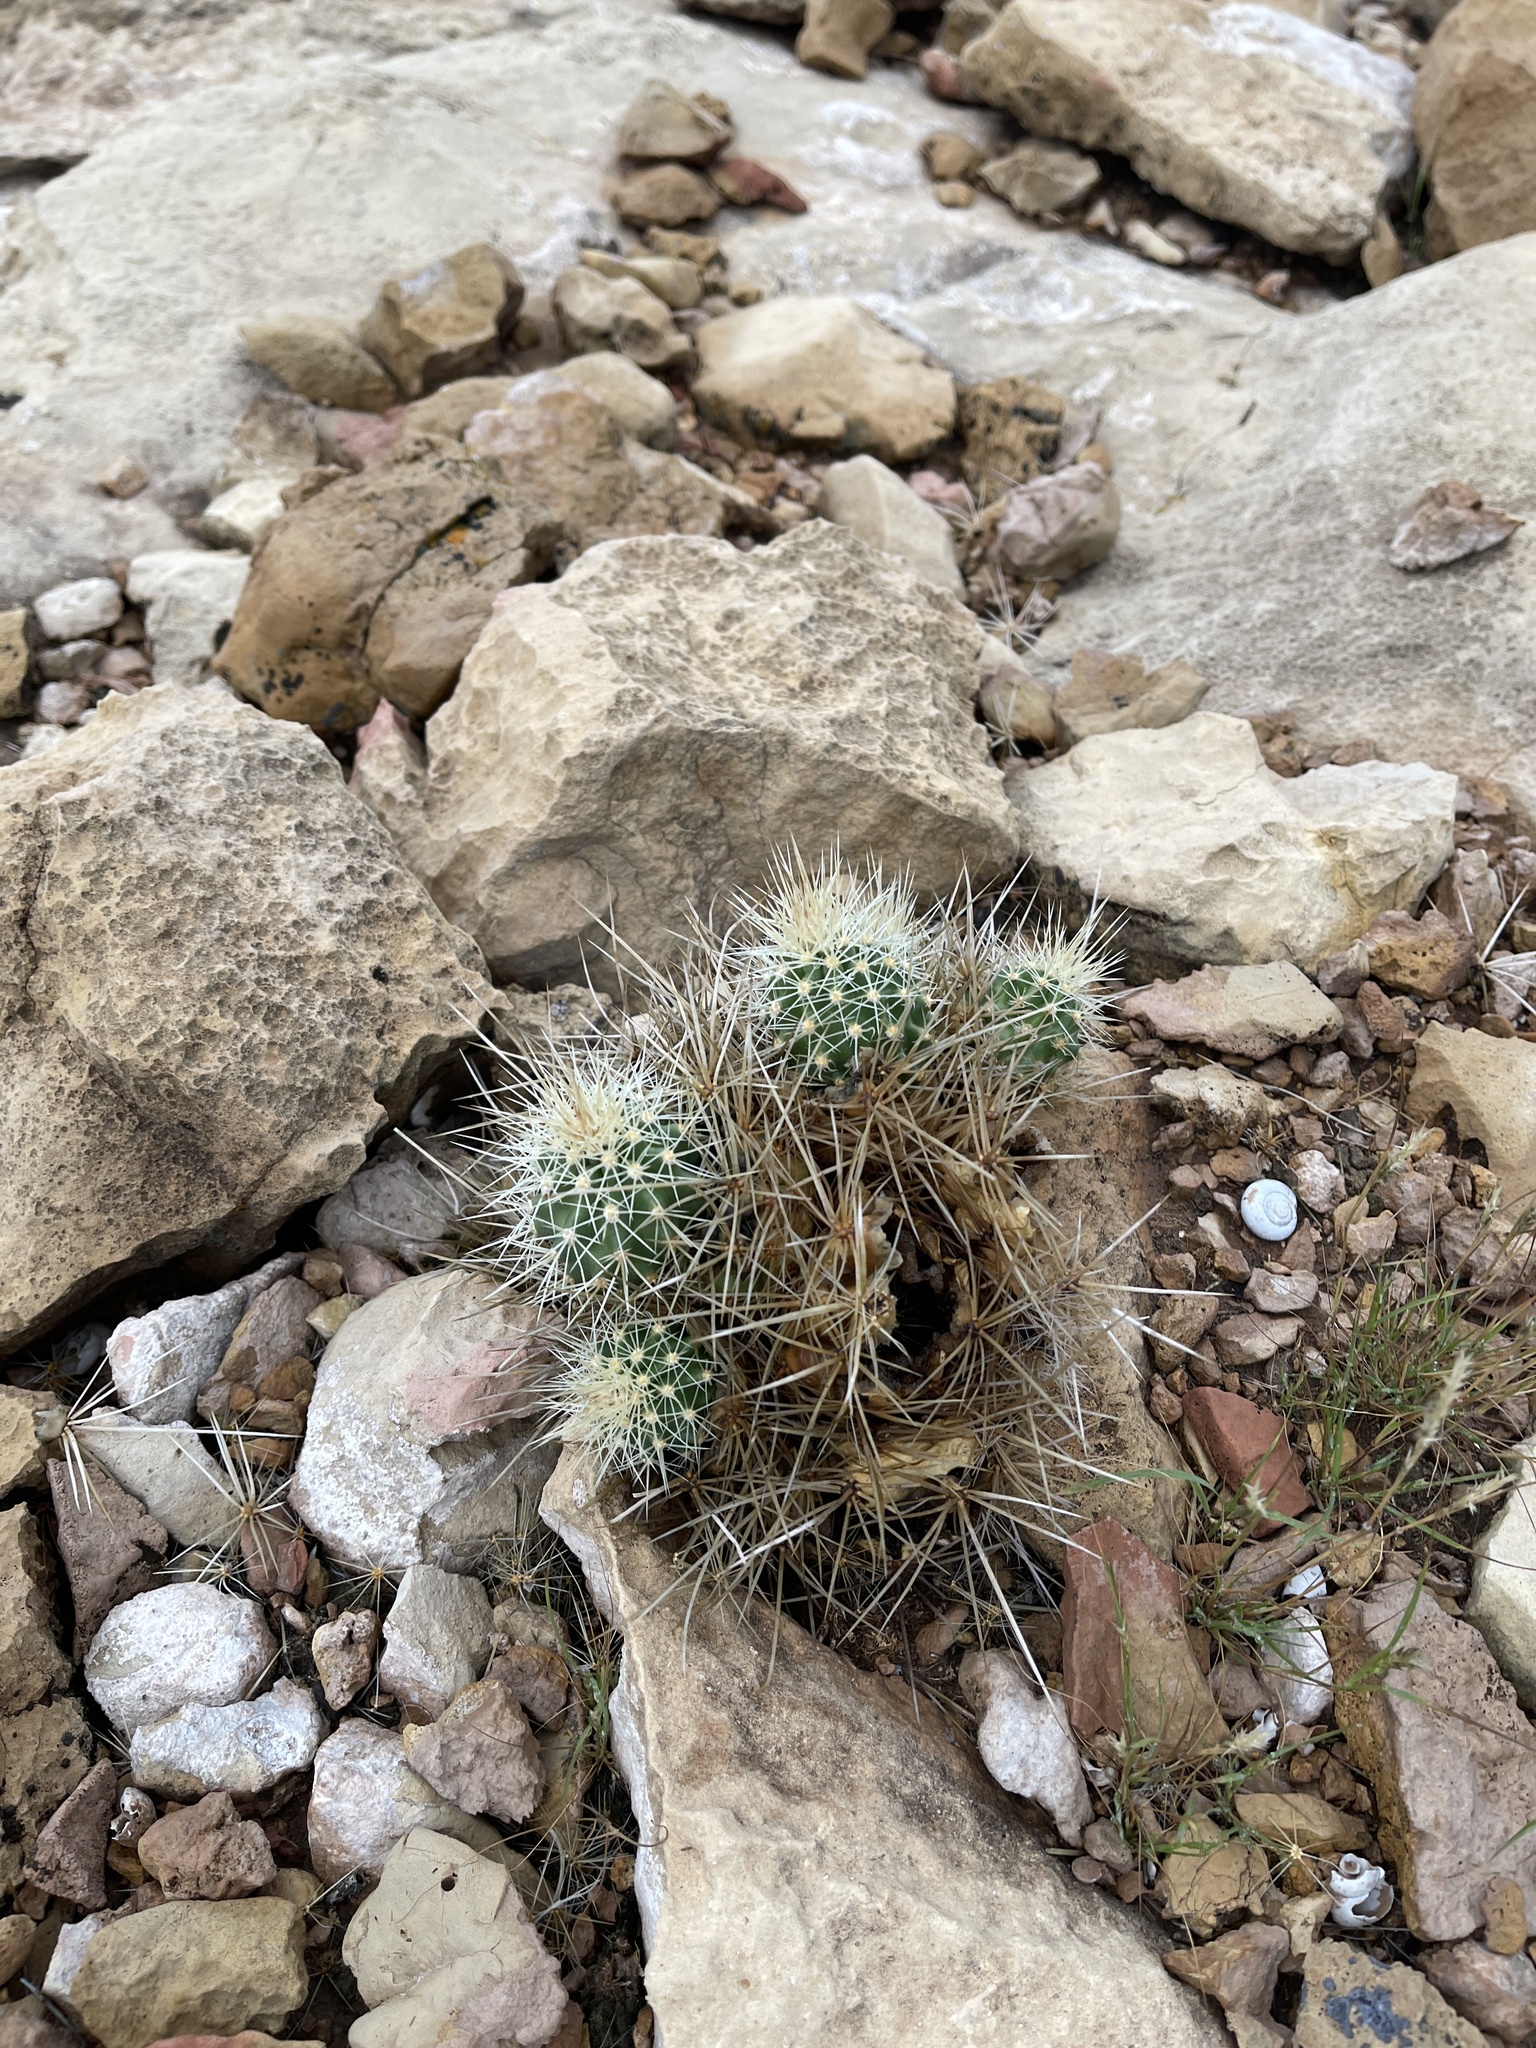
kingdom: Plantae
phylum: Tracheophyta
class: Magnoliopsida
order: Caryophyllales
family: Cactaceae
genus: Echinocereus
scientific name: Echinocereus triglochidiatus
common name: Claretcup hedgehog
